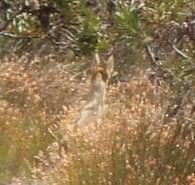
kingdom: Animalia
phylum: Chordata
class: Mammalia
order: Artiodactyla
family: Bovidae
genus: Oreotragus
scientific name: Oreotragus oreotragus
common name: Klipspringer
